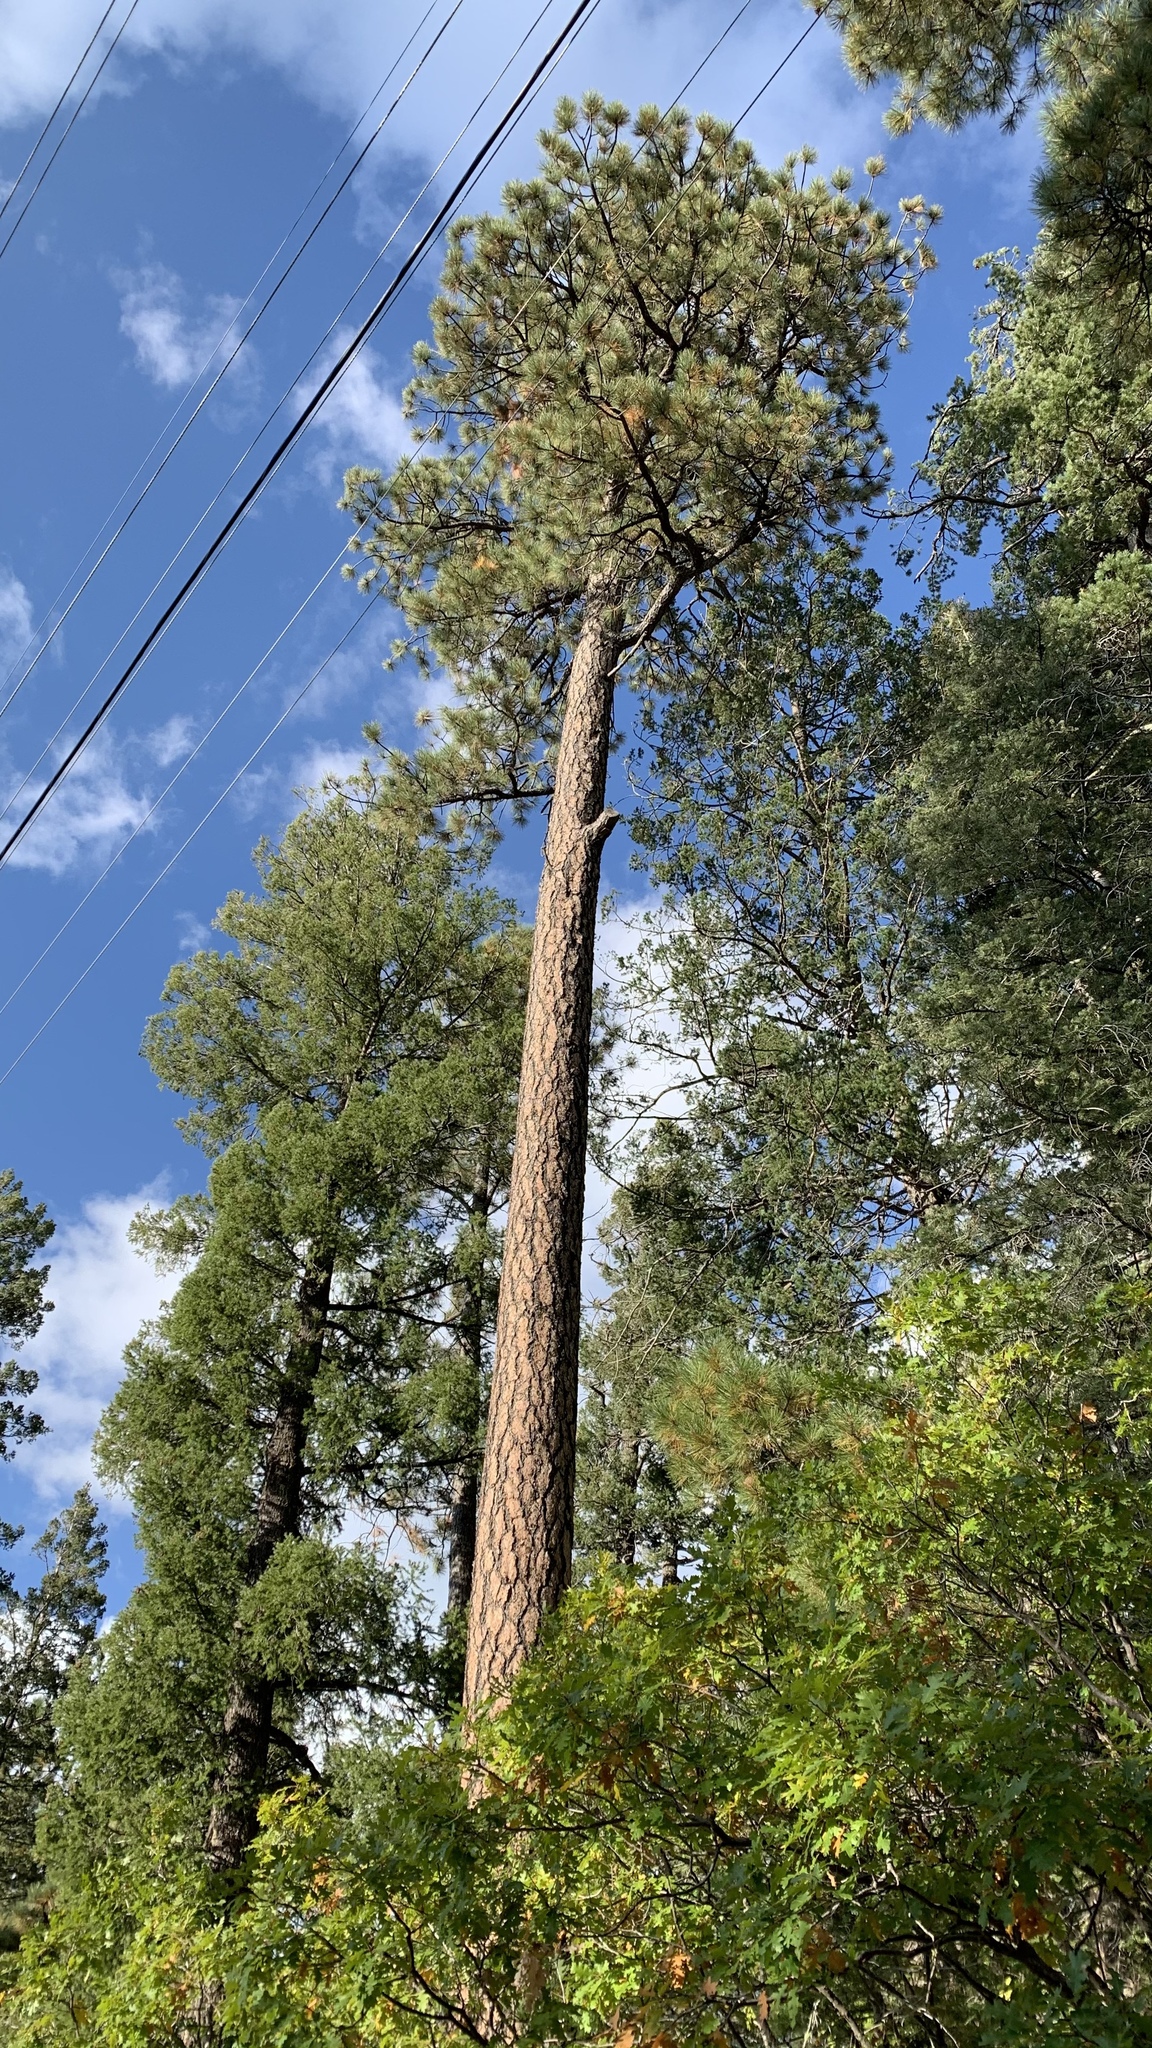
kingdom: Plantae
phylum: Tracheophyta
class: Pinopsida
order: Pinales
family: Pinaceae
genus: Pinus
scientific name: Pinus ponderosa
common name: Western yellow-pine
